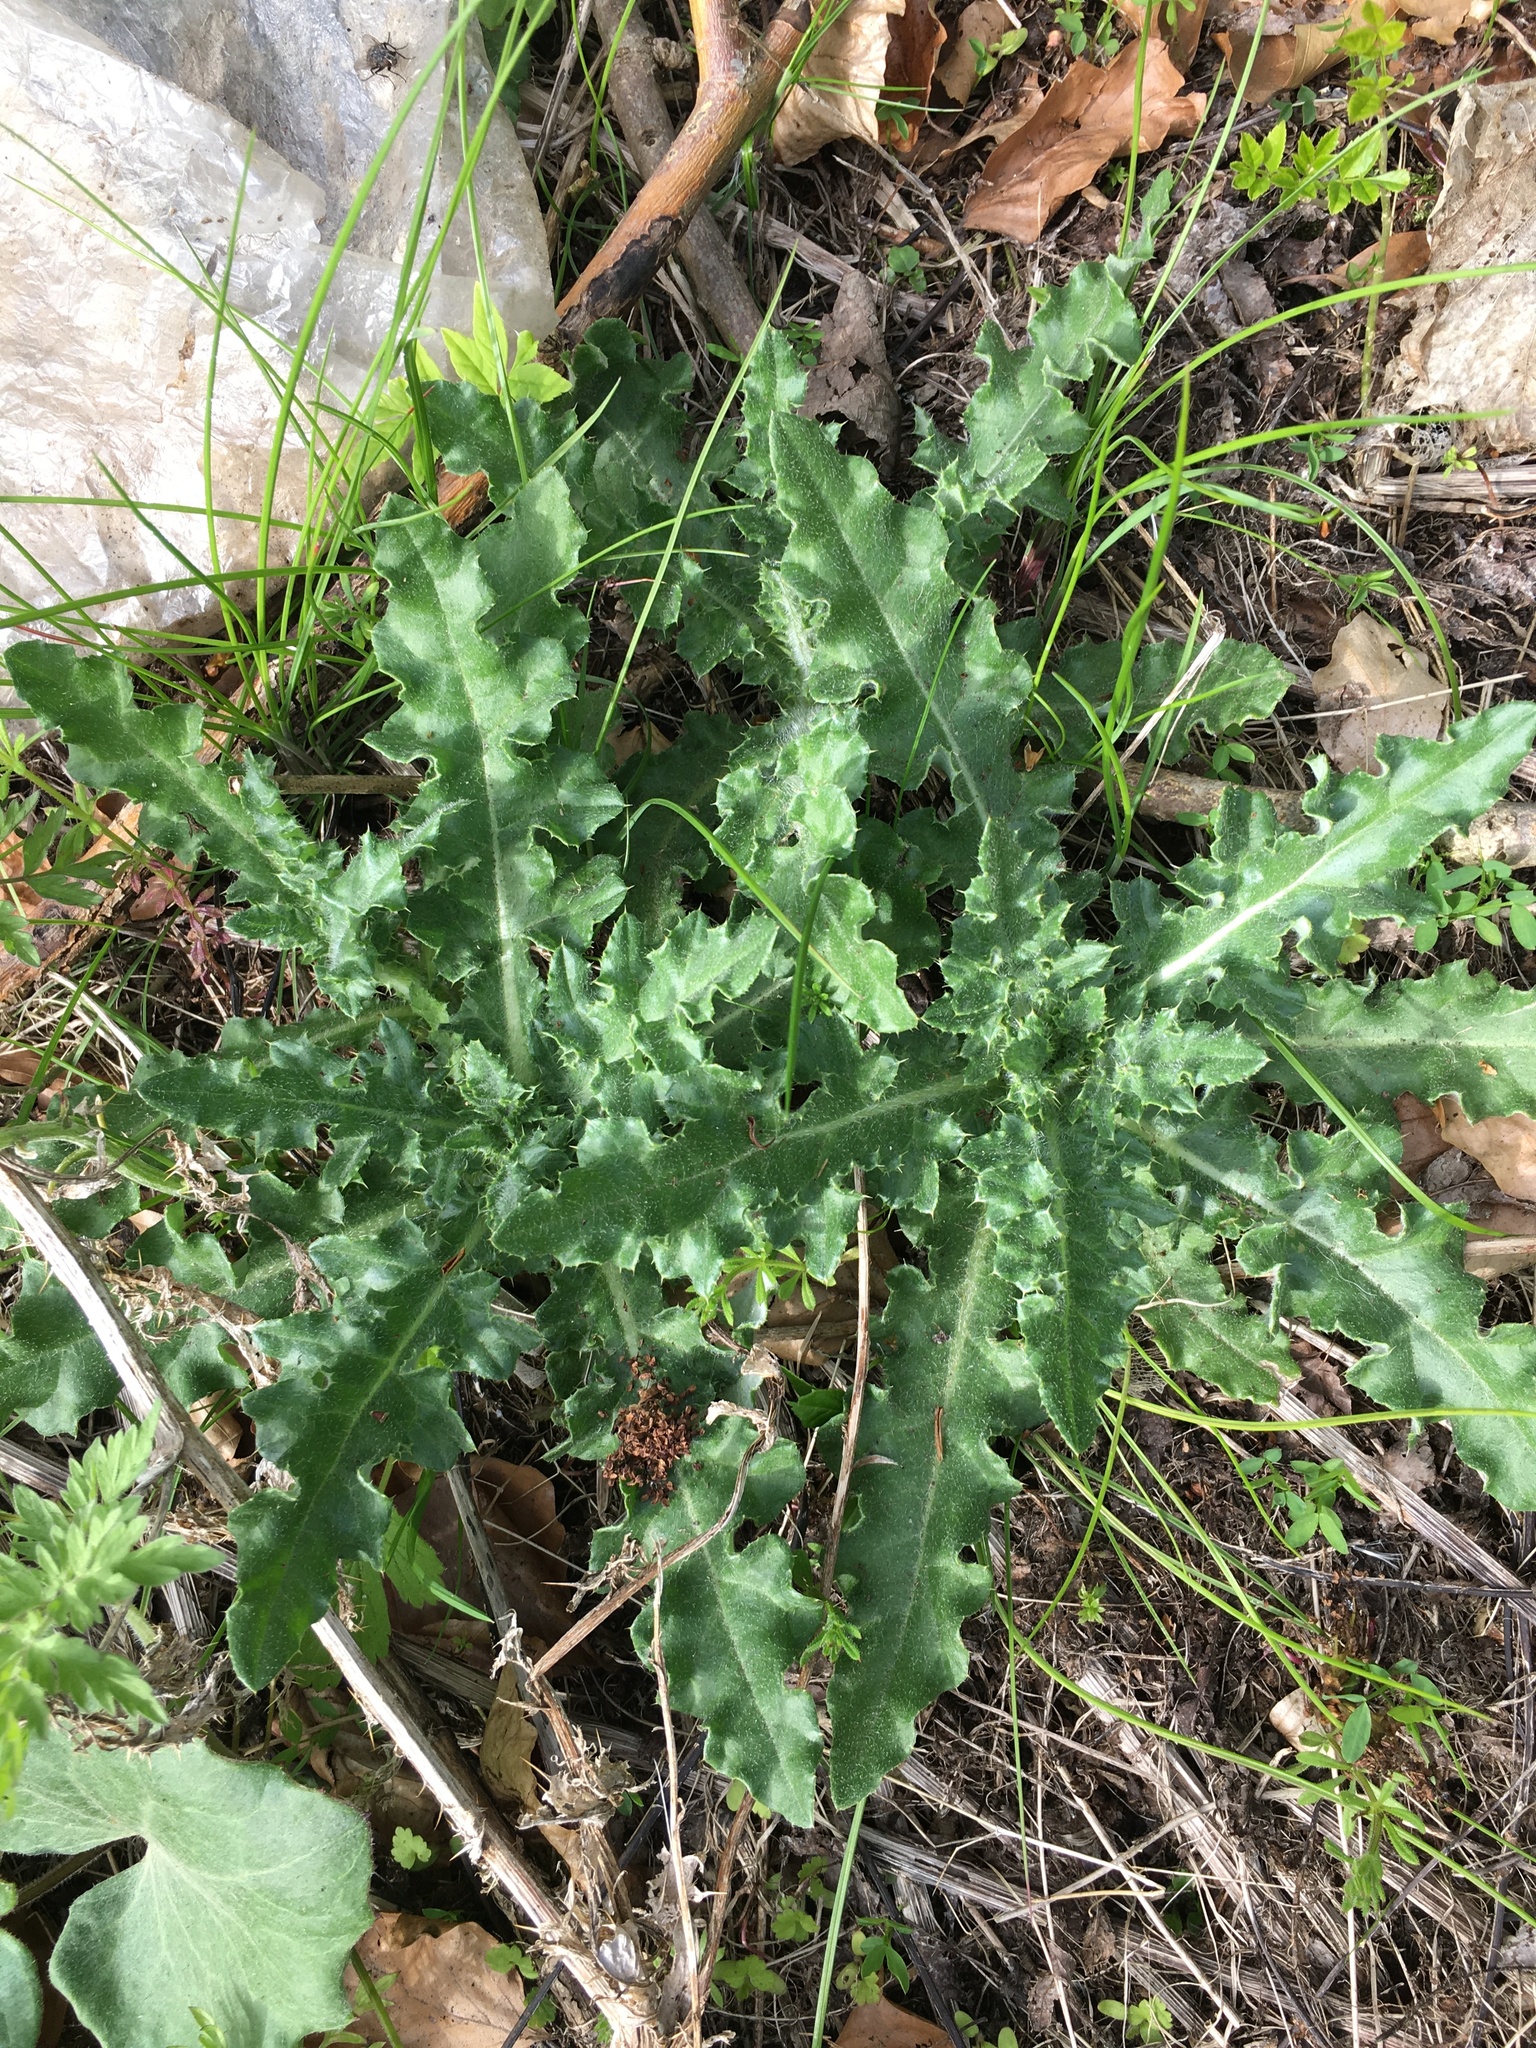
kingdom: Plantae
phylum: Tracheophyta
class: Magnoliopsida
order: Asterales
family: Asteraceae
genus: Cirsium
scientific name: Cirsium arvense
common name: Creeping thistle
